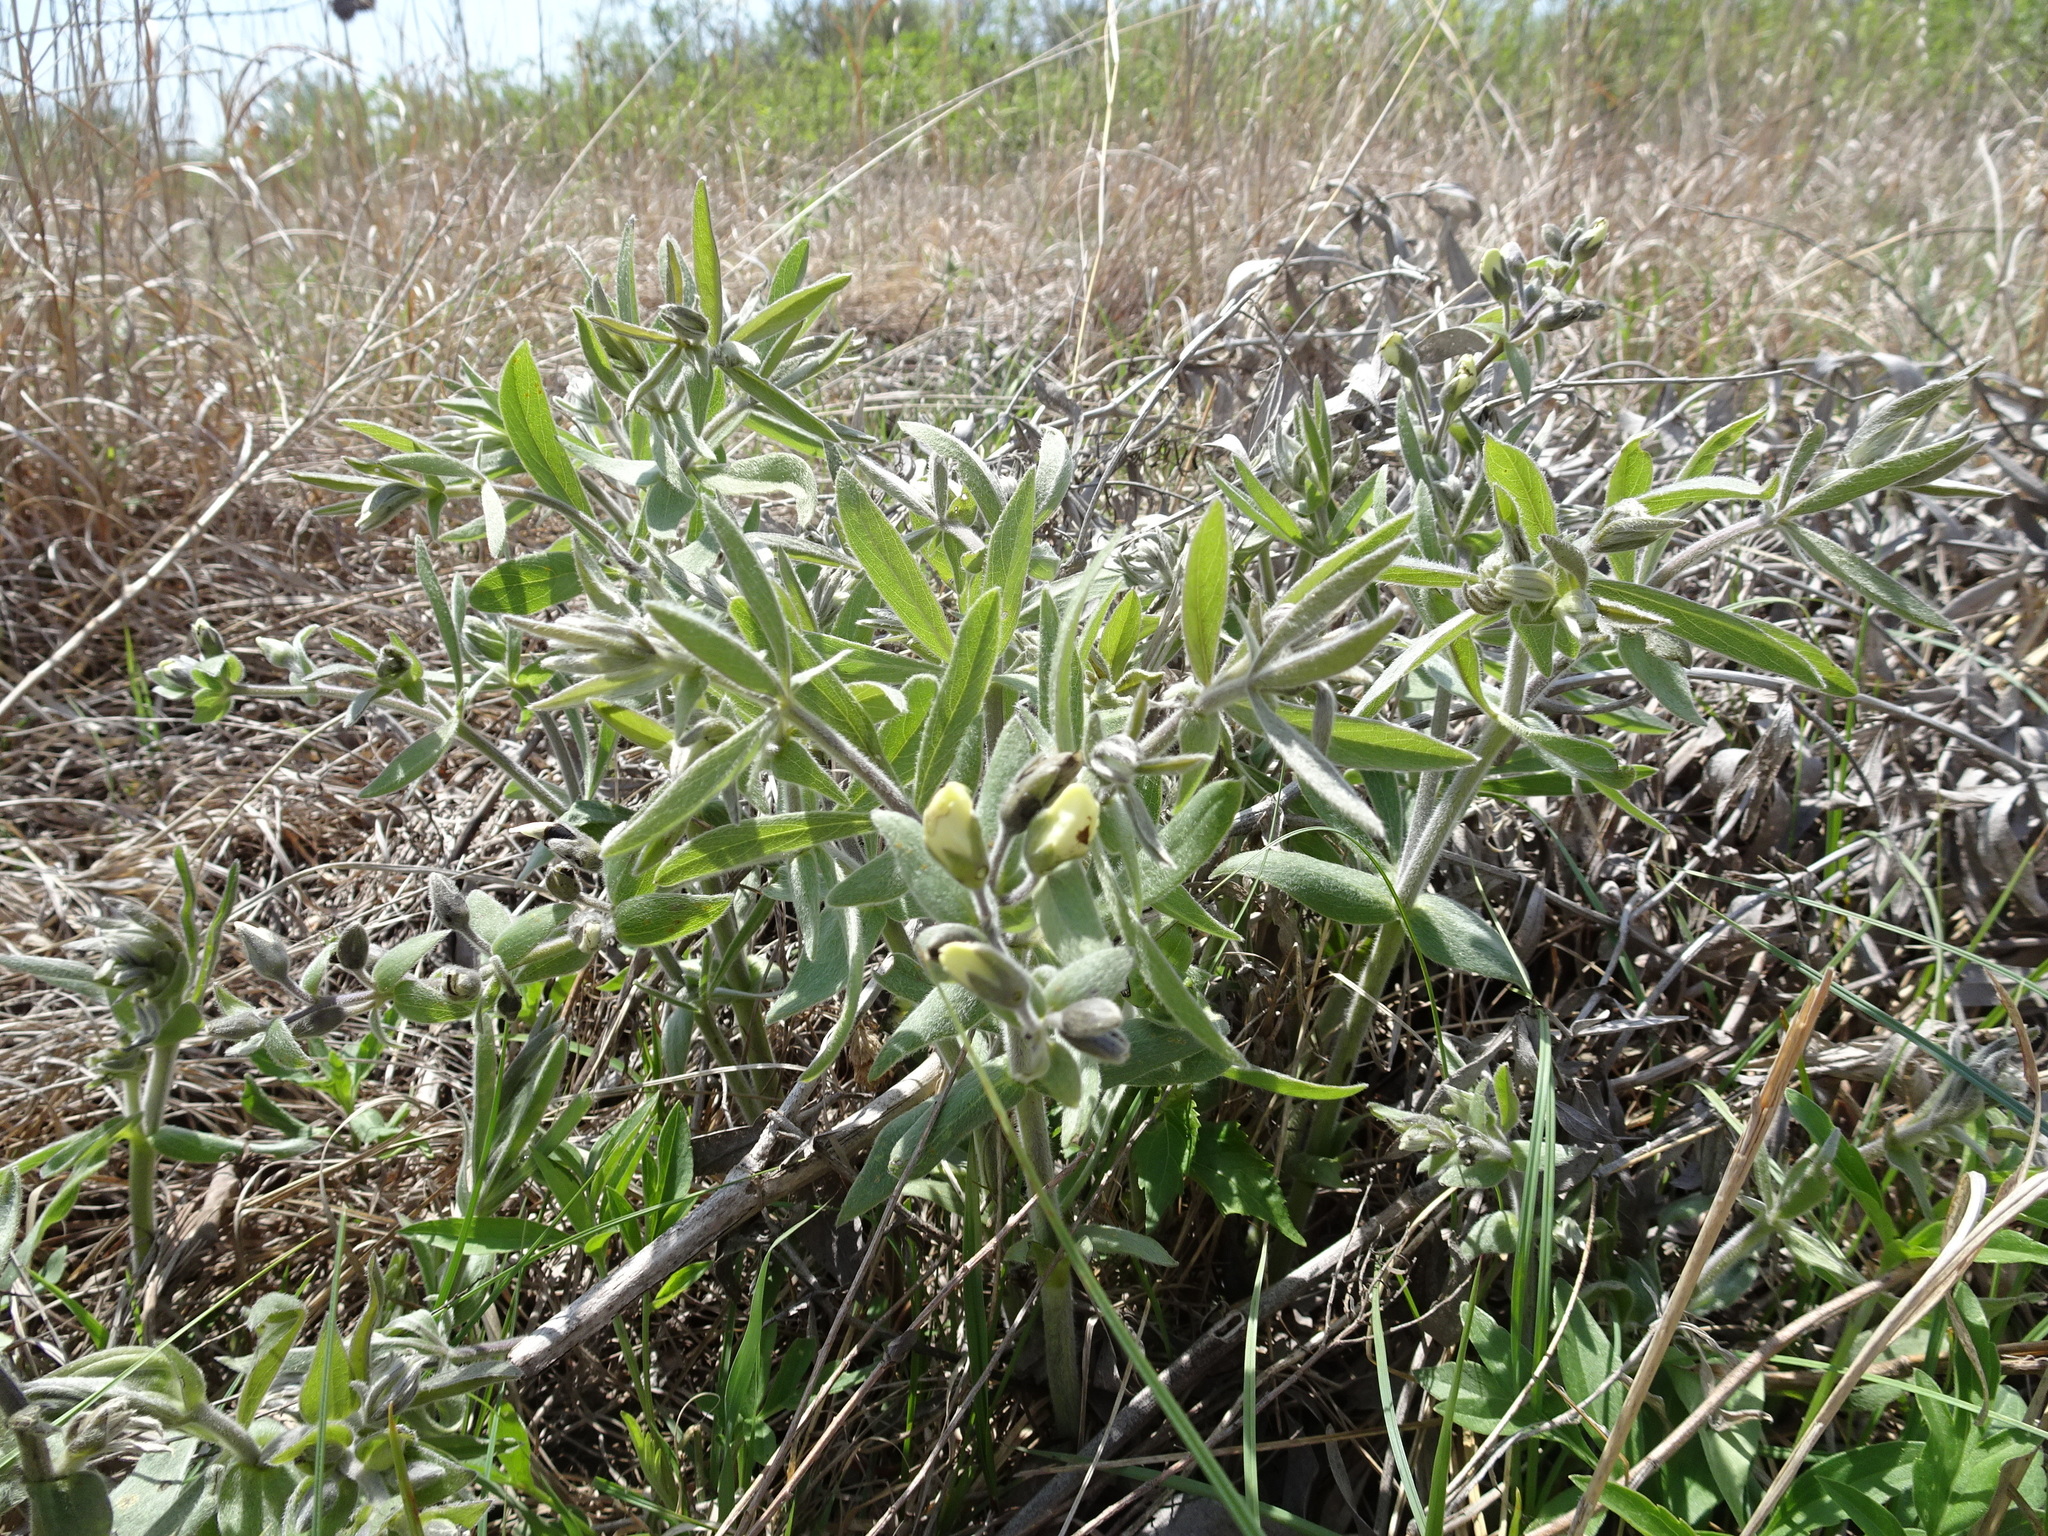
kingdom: Plantae
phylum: Tracheophyta
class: Magnoliopsida
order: Fabales
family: Fabaceae
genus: Baptisia
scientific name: Baptisia bracteata
